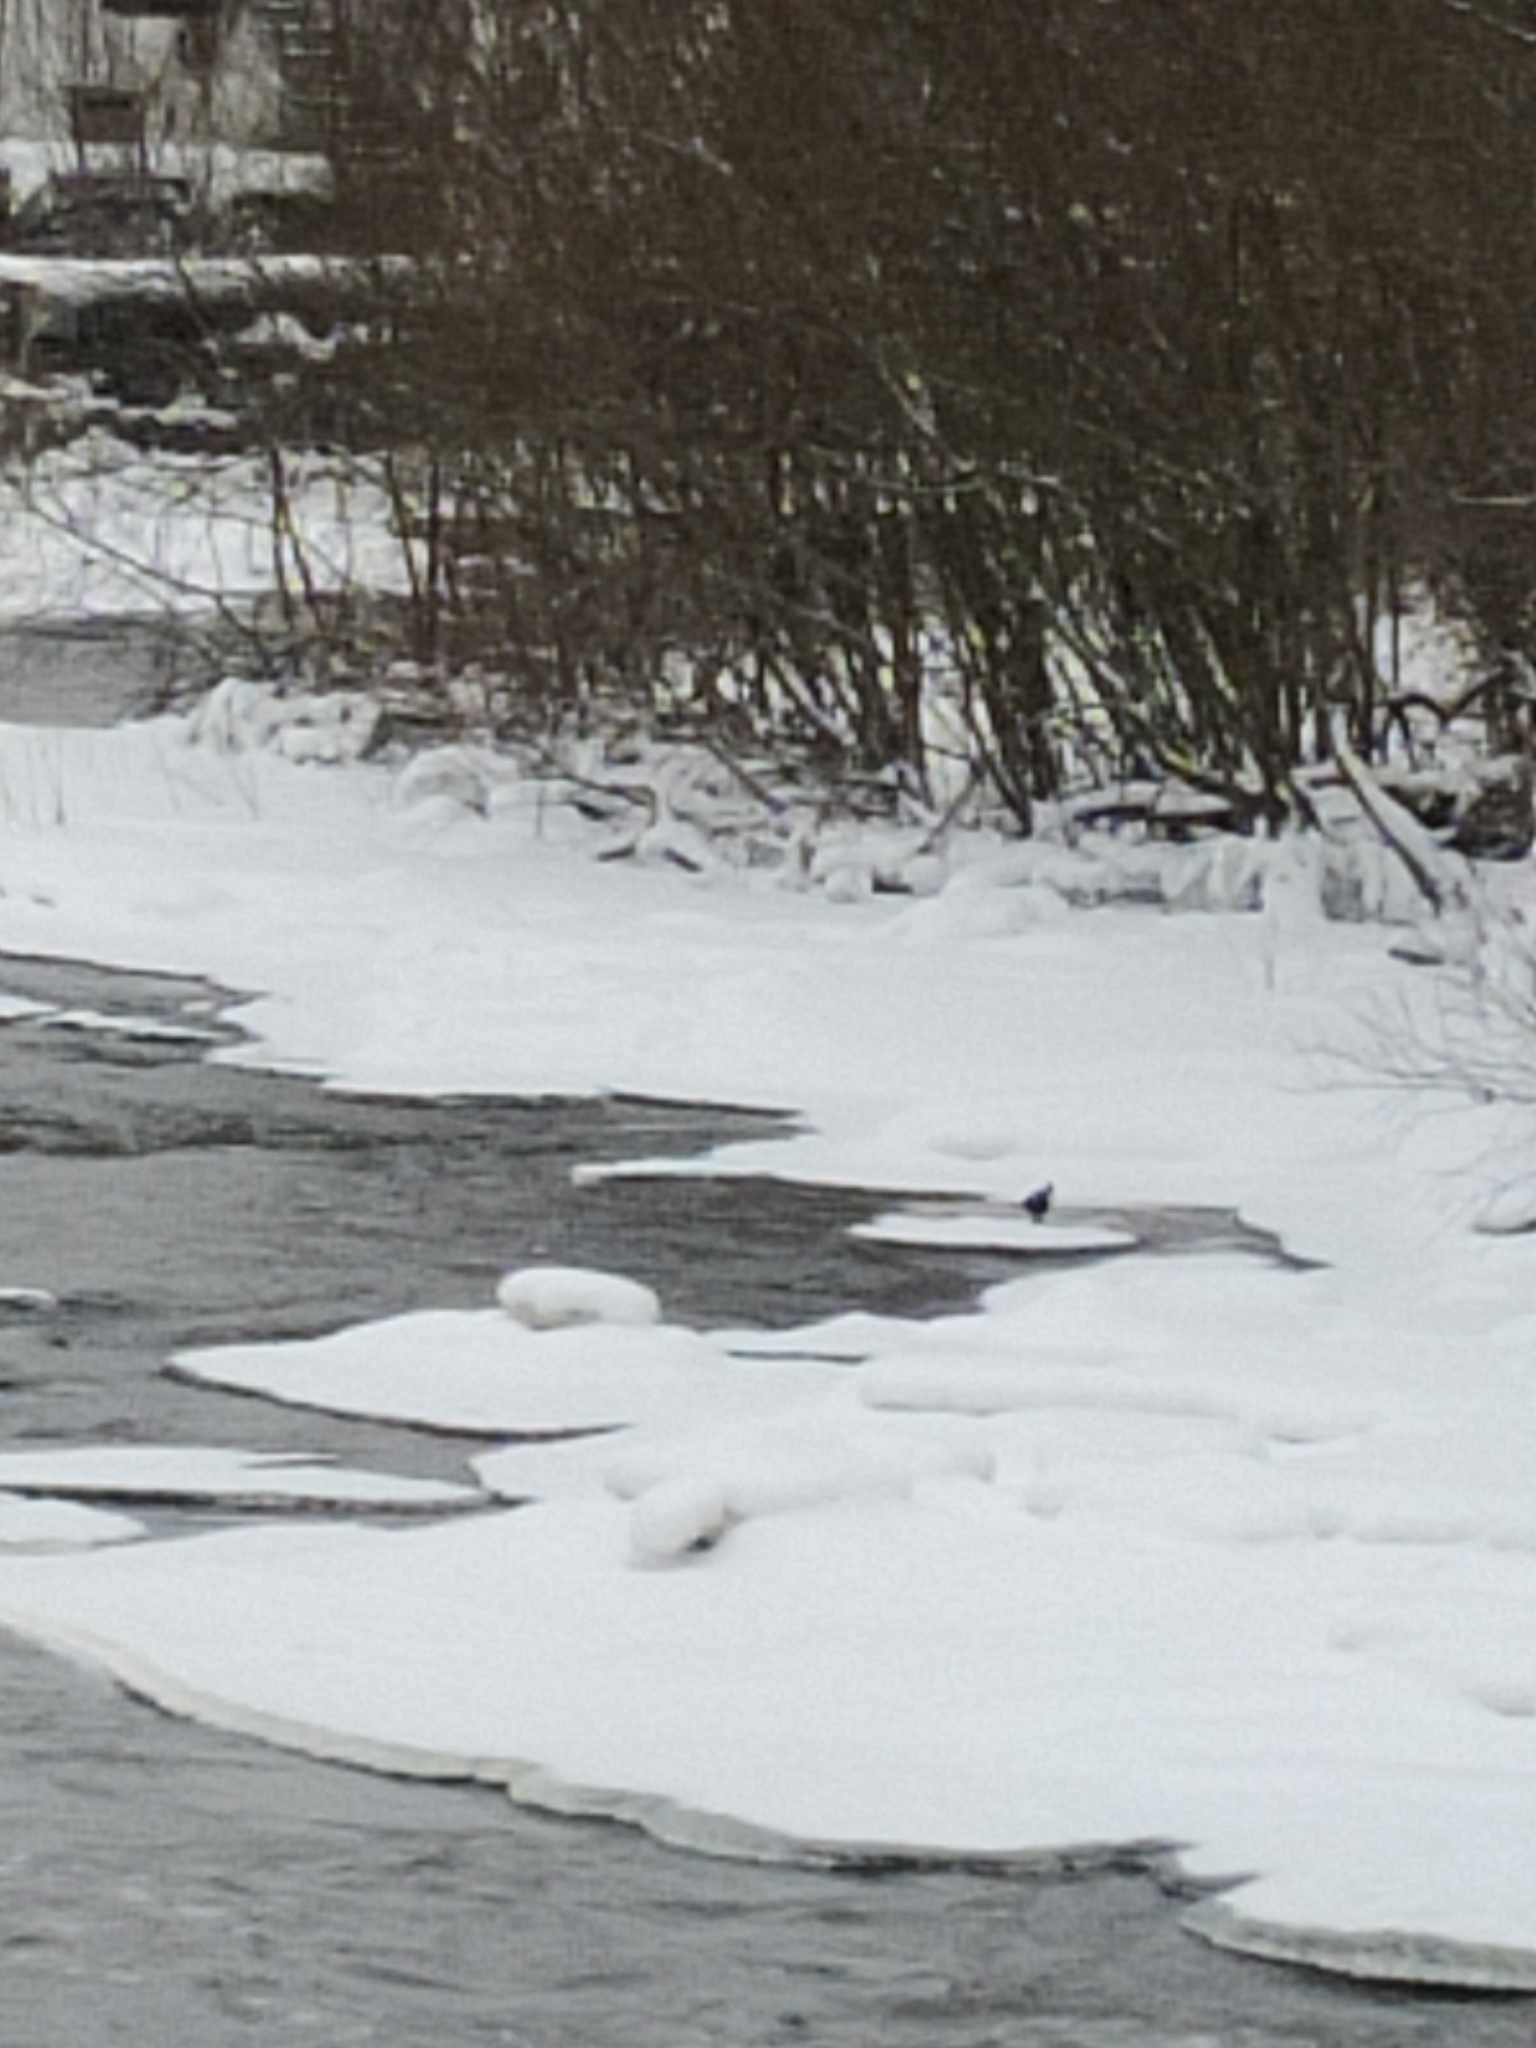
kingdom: Animalia
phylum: Chordata
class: Aves
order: Passeriformes
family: Cinclidae
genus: Cinclus
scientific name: Cinclus cinclus
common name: White-throated dipper
